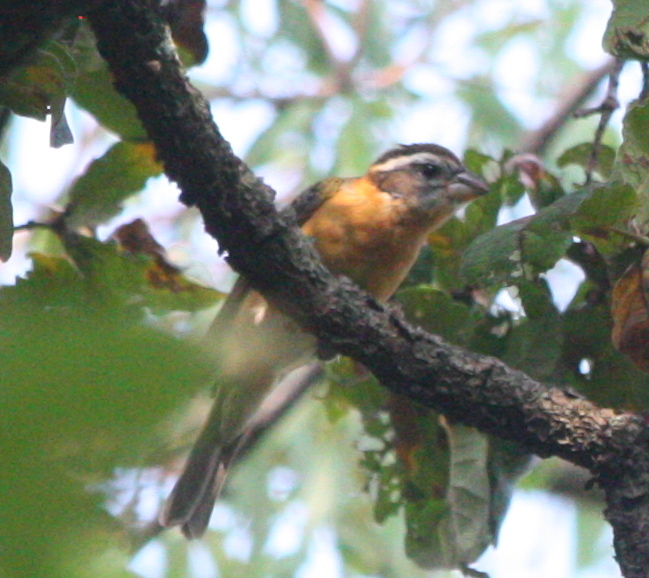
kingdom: Animalia
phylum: Chordata
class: Aves
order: Passeriformes
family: Cardinalidae
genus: Pheucticus
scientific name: Pheucticus melanocephalus
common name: Black-headed grosbeak
